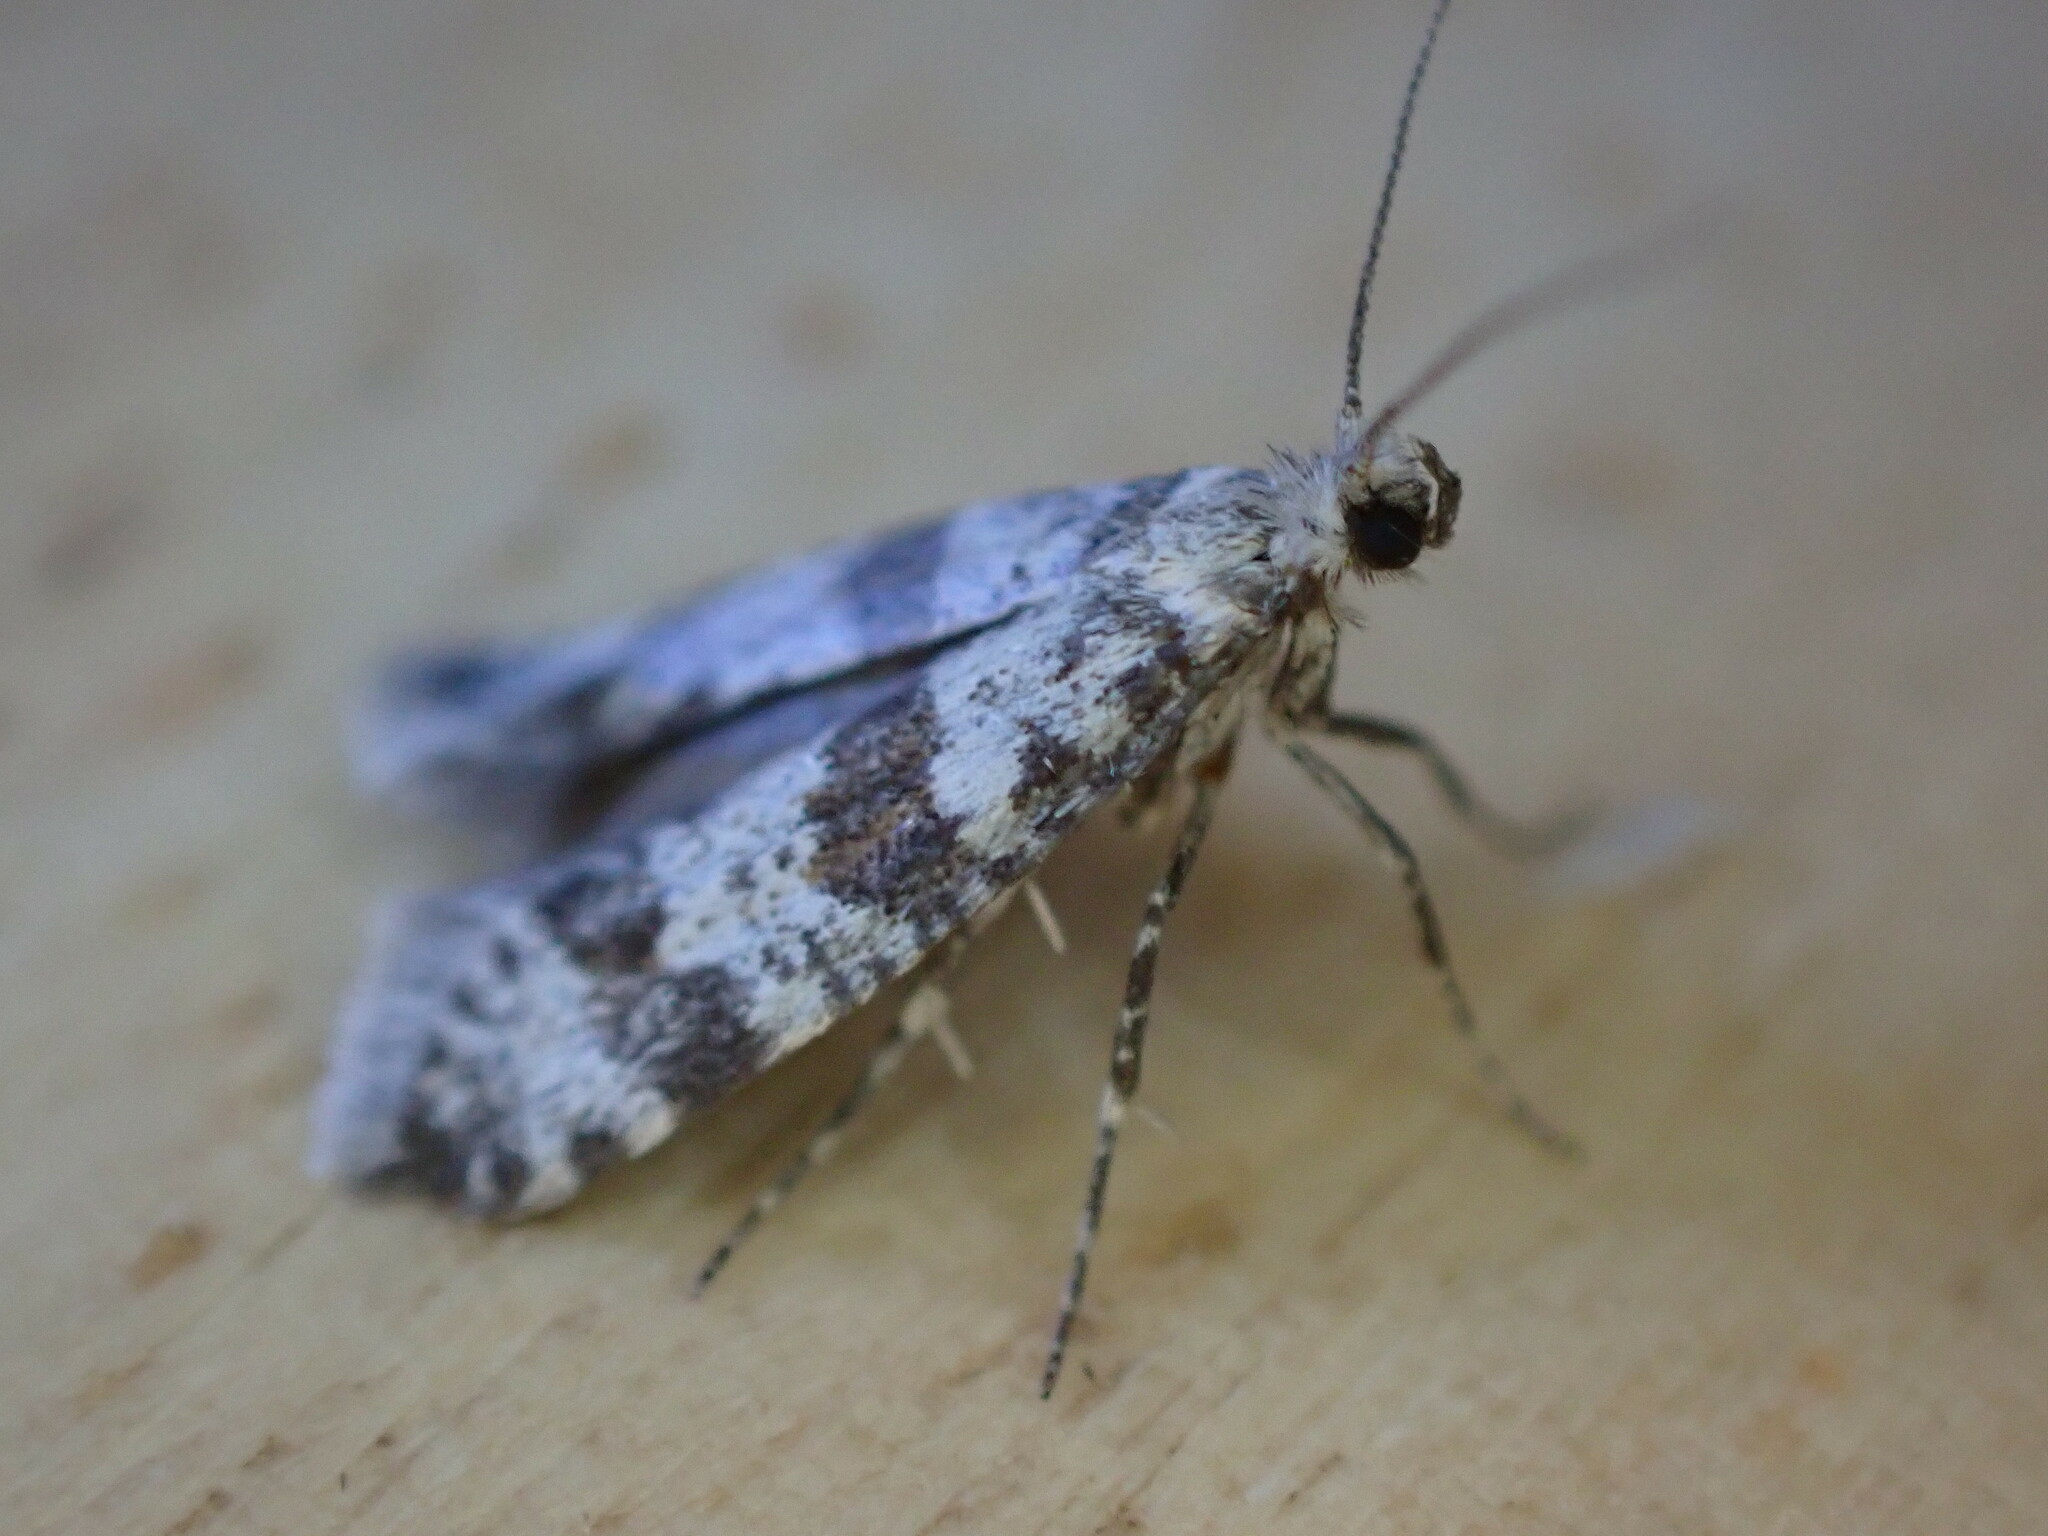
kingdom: Animalia
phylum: Arthropoda
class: Insecta
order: Lepidoptera
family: Yponomeutidae
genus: Scythropia
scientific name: Scythropia crataegella
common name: Hawthorn moth
